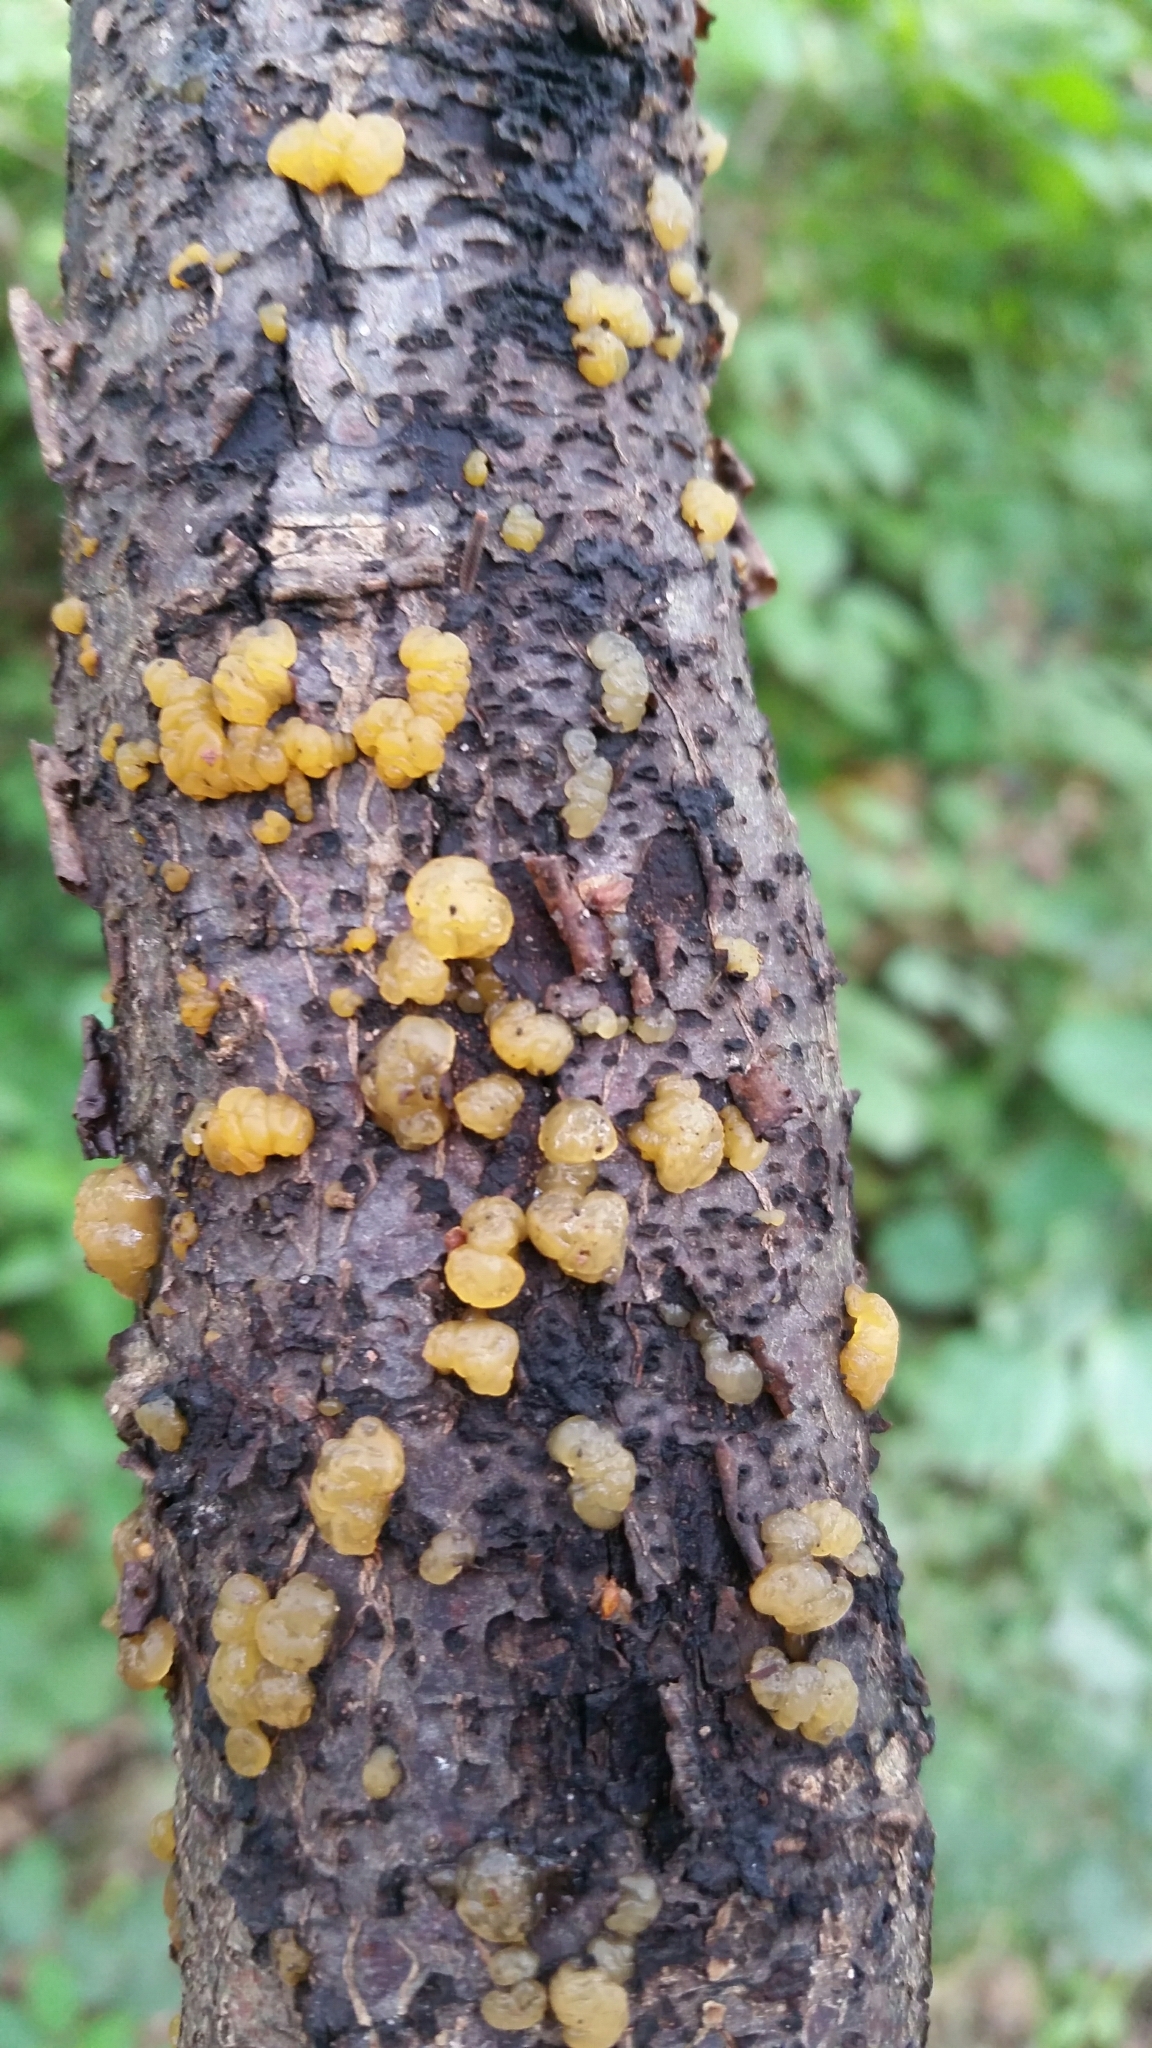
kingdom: Fungi
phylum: Basidiomycota
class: Dacrymycetes
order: Dacrymycetales
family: Dacrymycetaceae
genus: Dacrymyces
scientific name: Dacrymyces stillatus
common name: Common jelly spot
